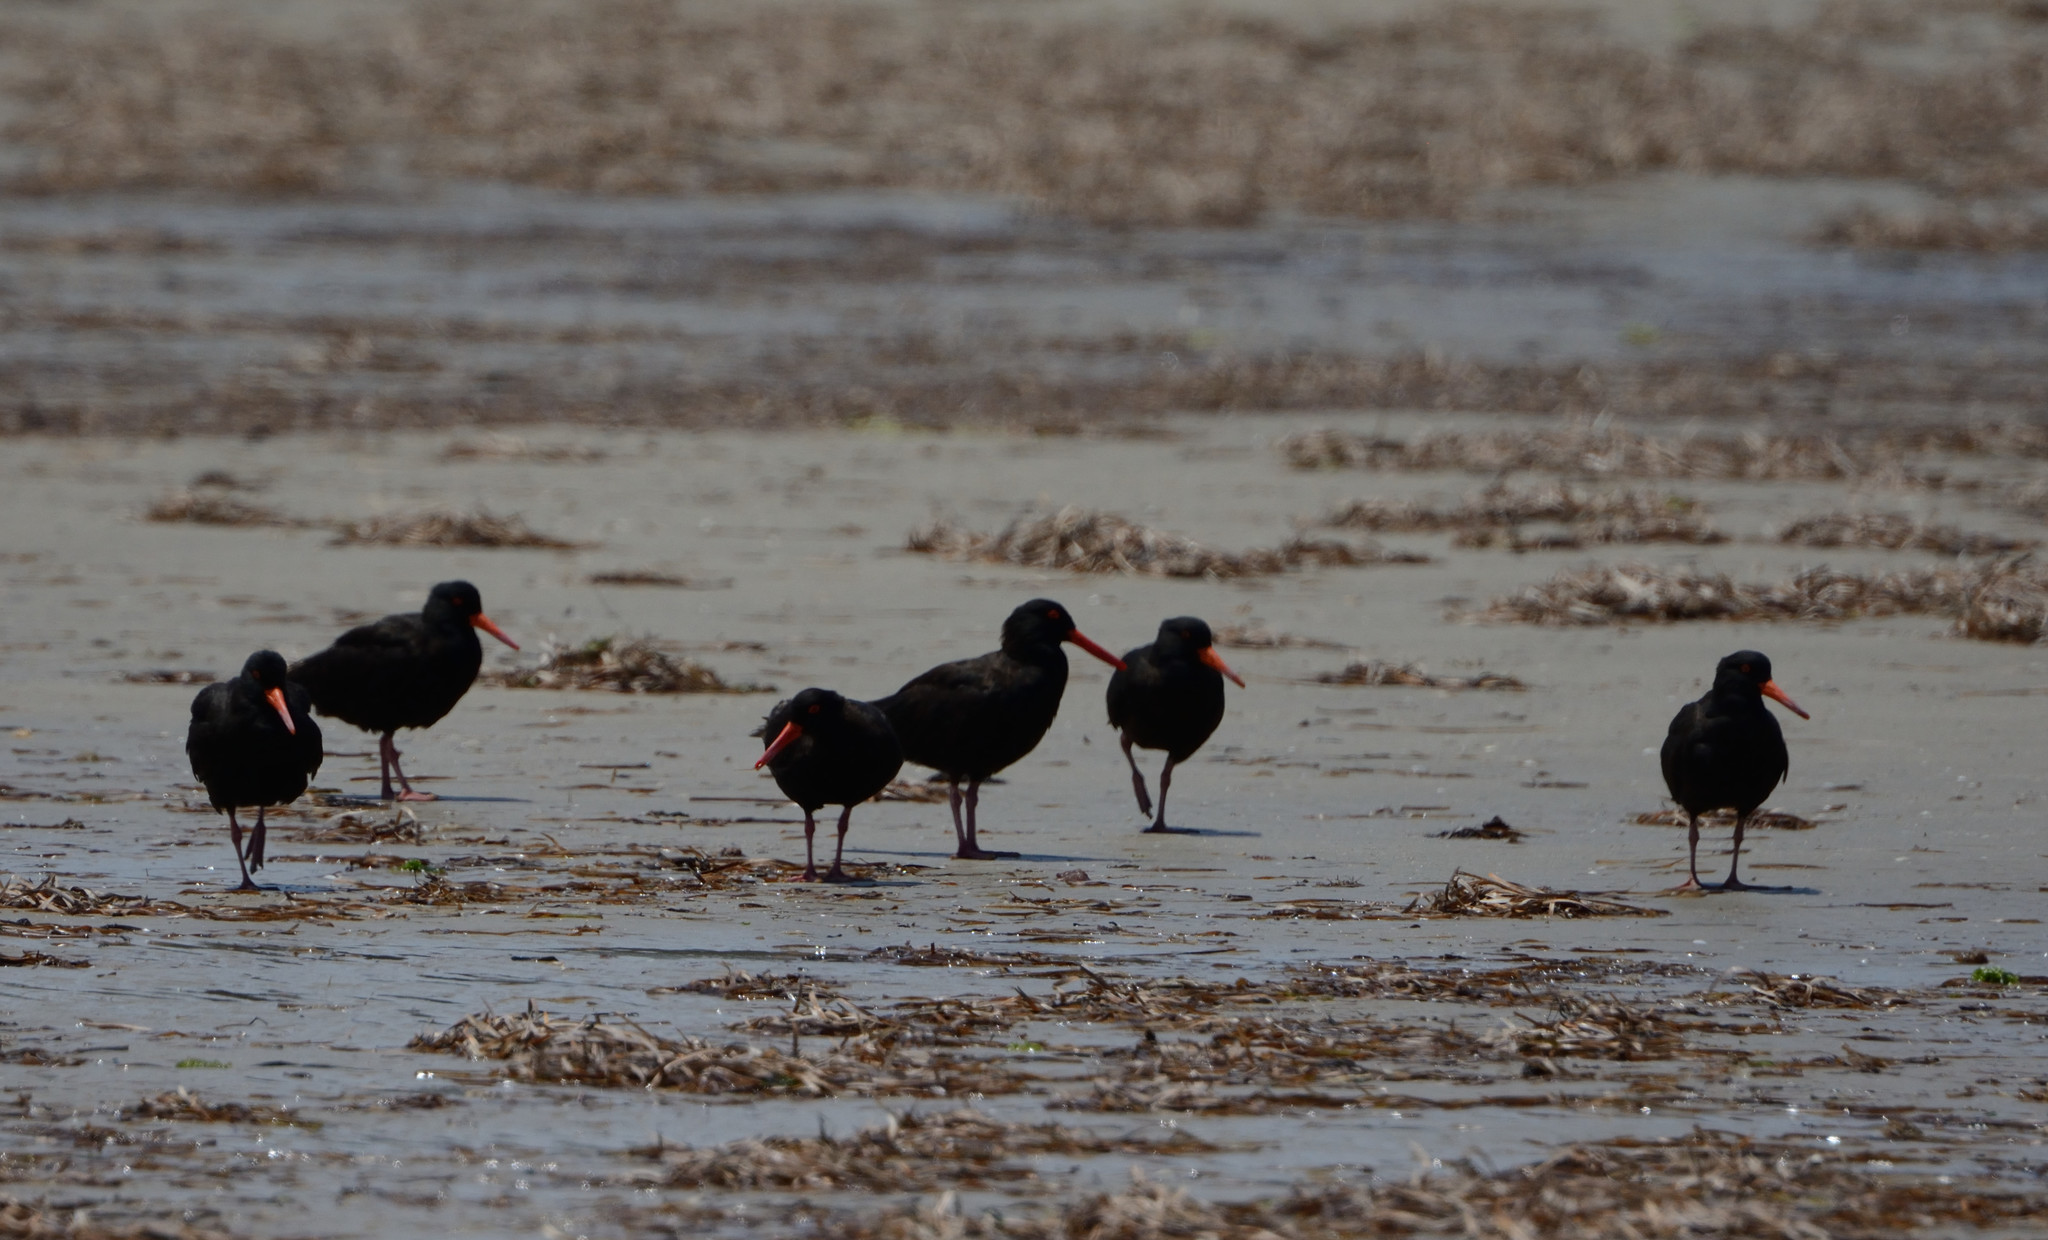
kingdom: Animalia
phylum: Chordata
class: Aves
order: Charadriiformes
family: Haematopodidae
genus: Haematopus
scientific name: Haematopus fuliginosus
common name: Sooty oystercatcher
